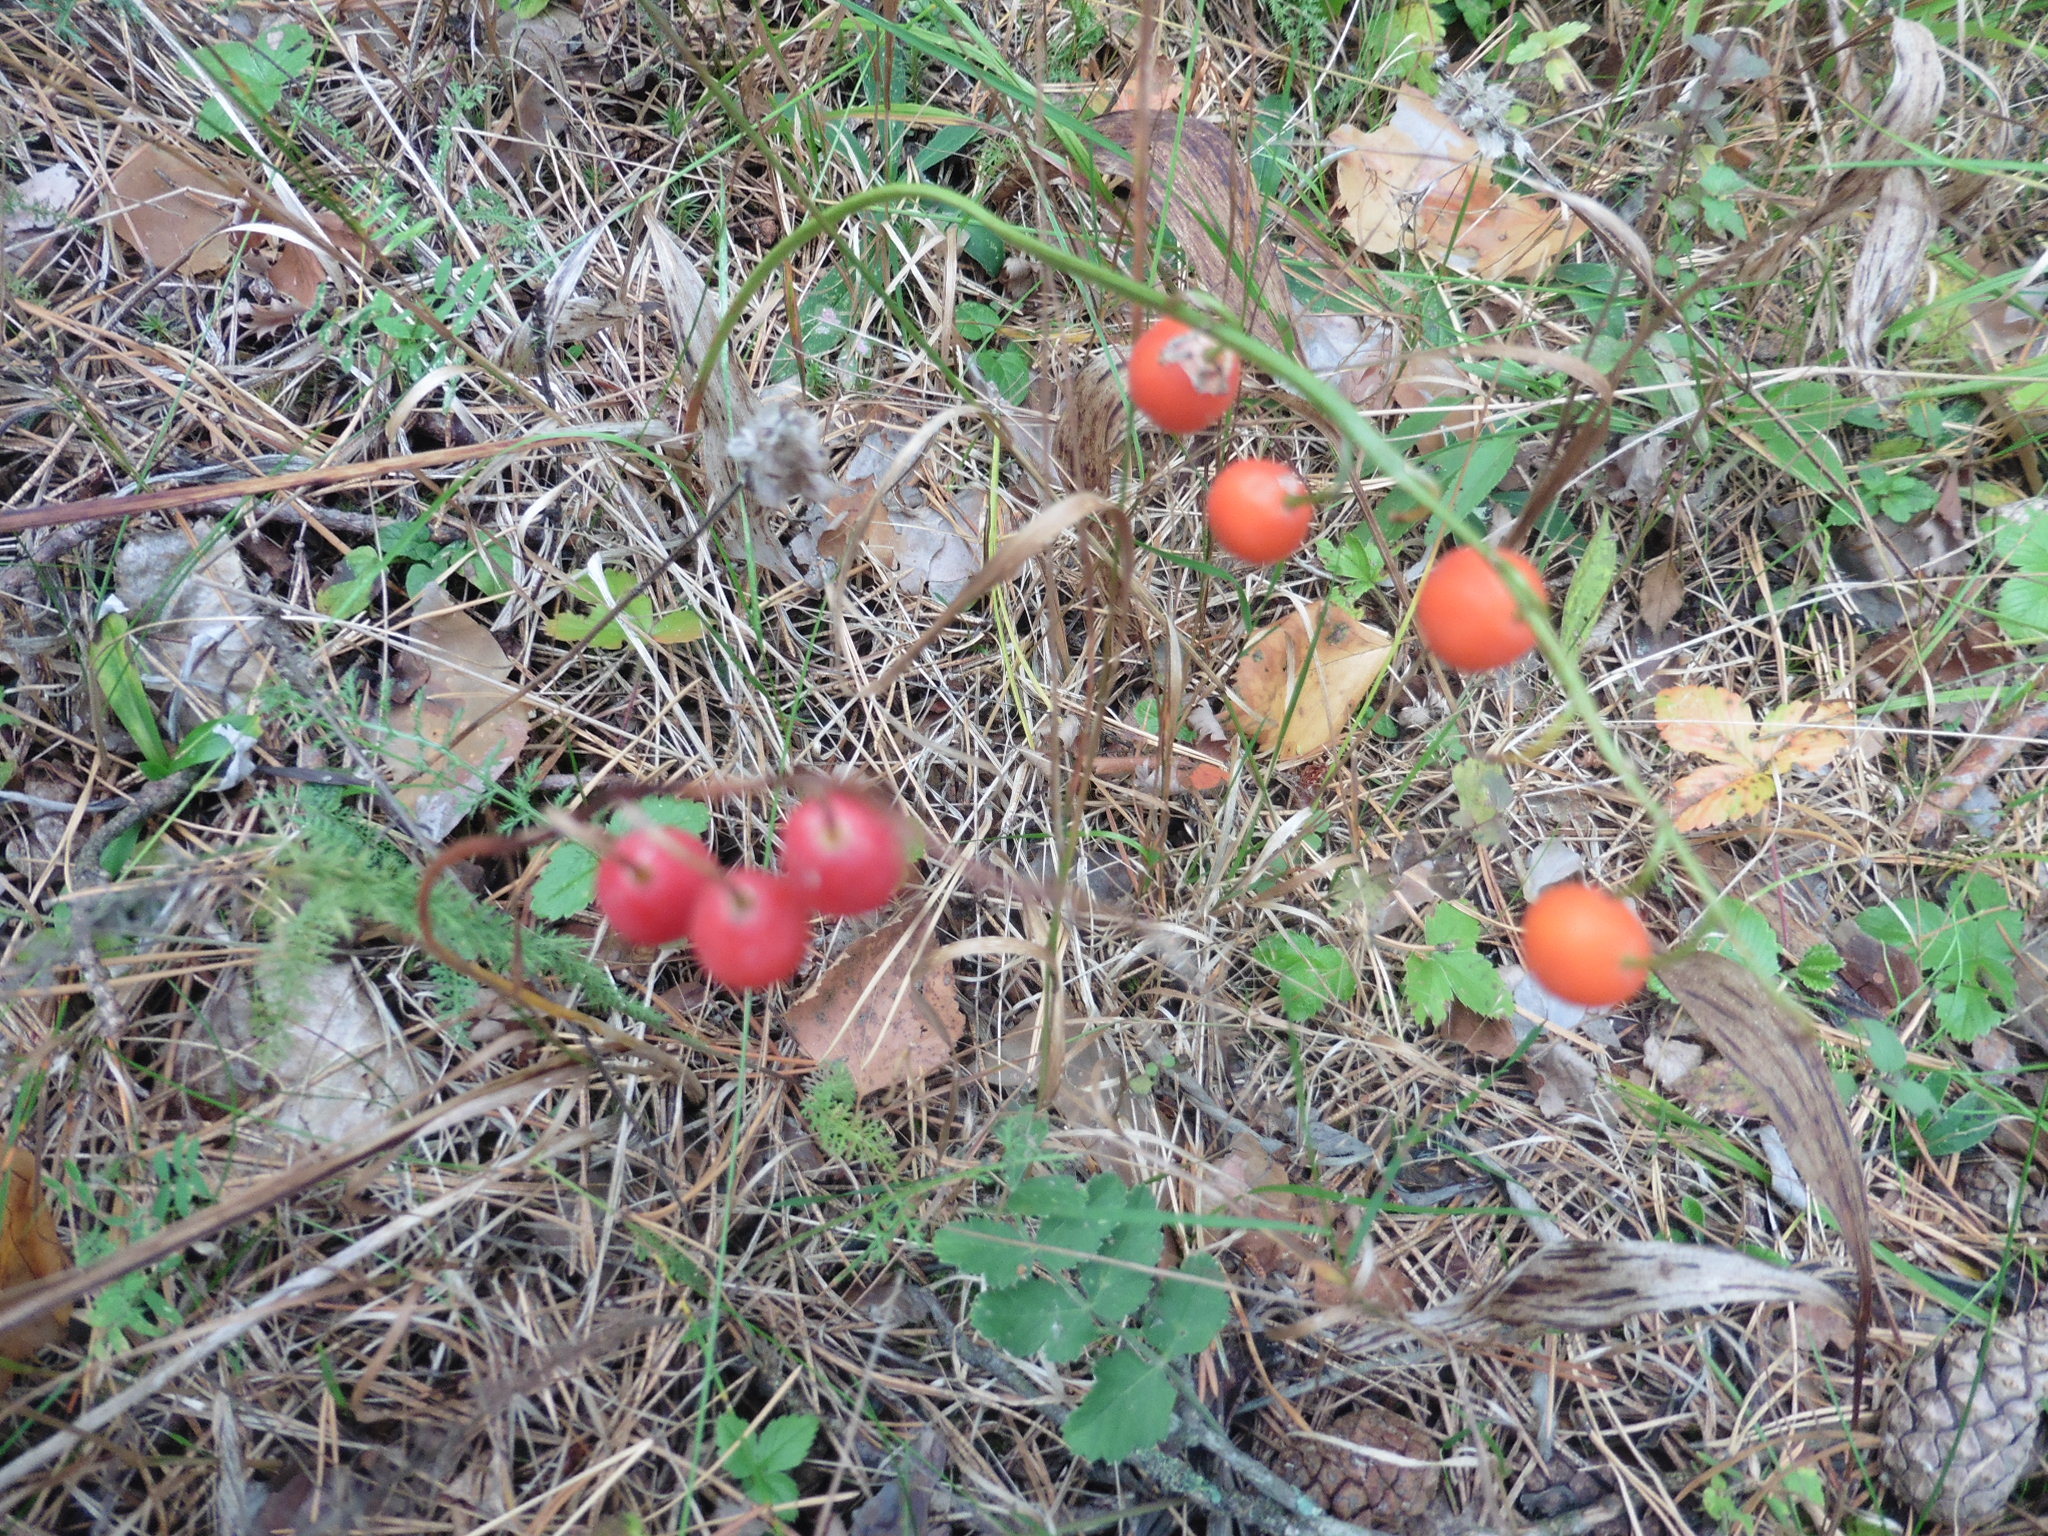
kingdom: Plantae
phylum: Tracheophyta
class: Liliopsida
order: Asparagales
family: Asparagaceae
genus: Convallaria
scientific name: Convallaria majalis
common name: Lily-of-the-valley
